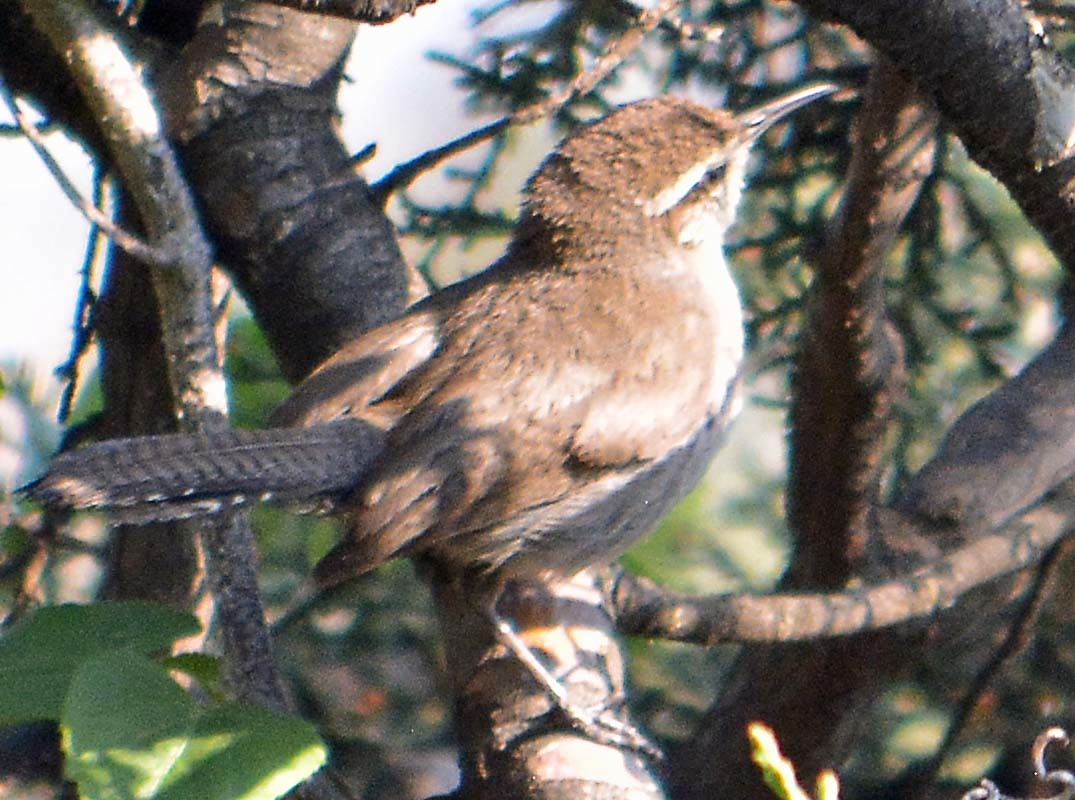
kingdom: Animalia
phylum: Chordata
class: Aves
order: Passeriformes
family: Troglodytidae
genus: Thryomanes
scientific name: Thryomanes bewickii
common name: Bewick's wren
